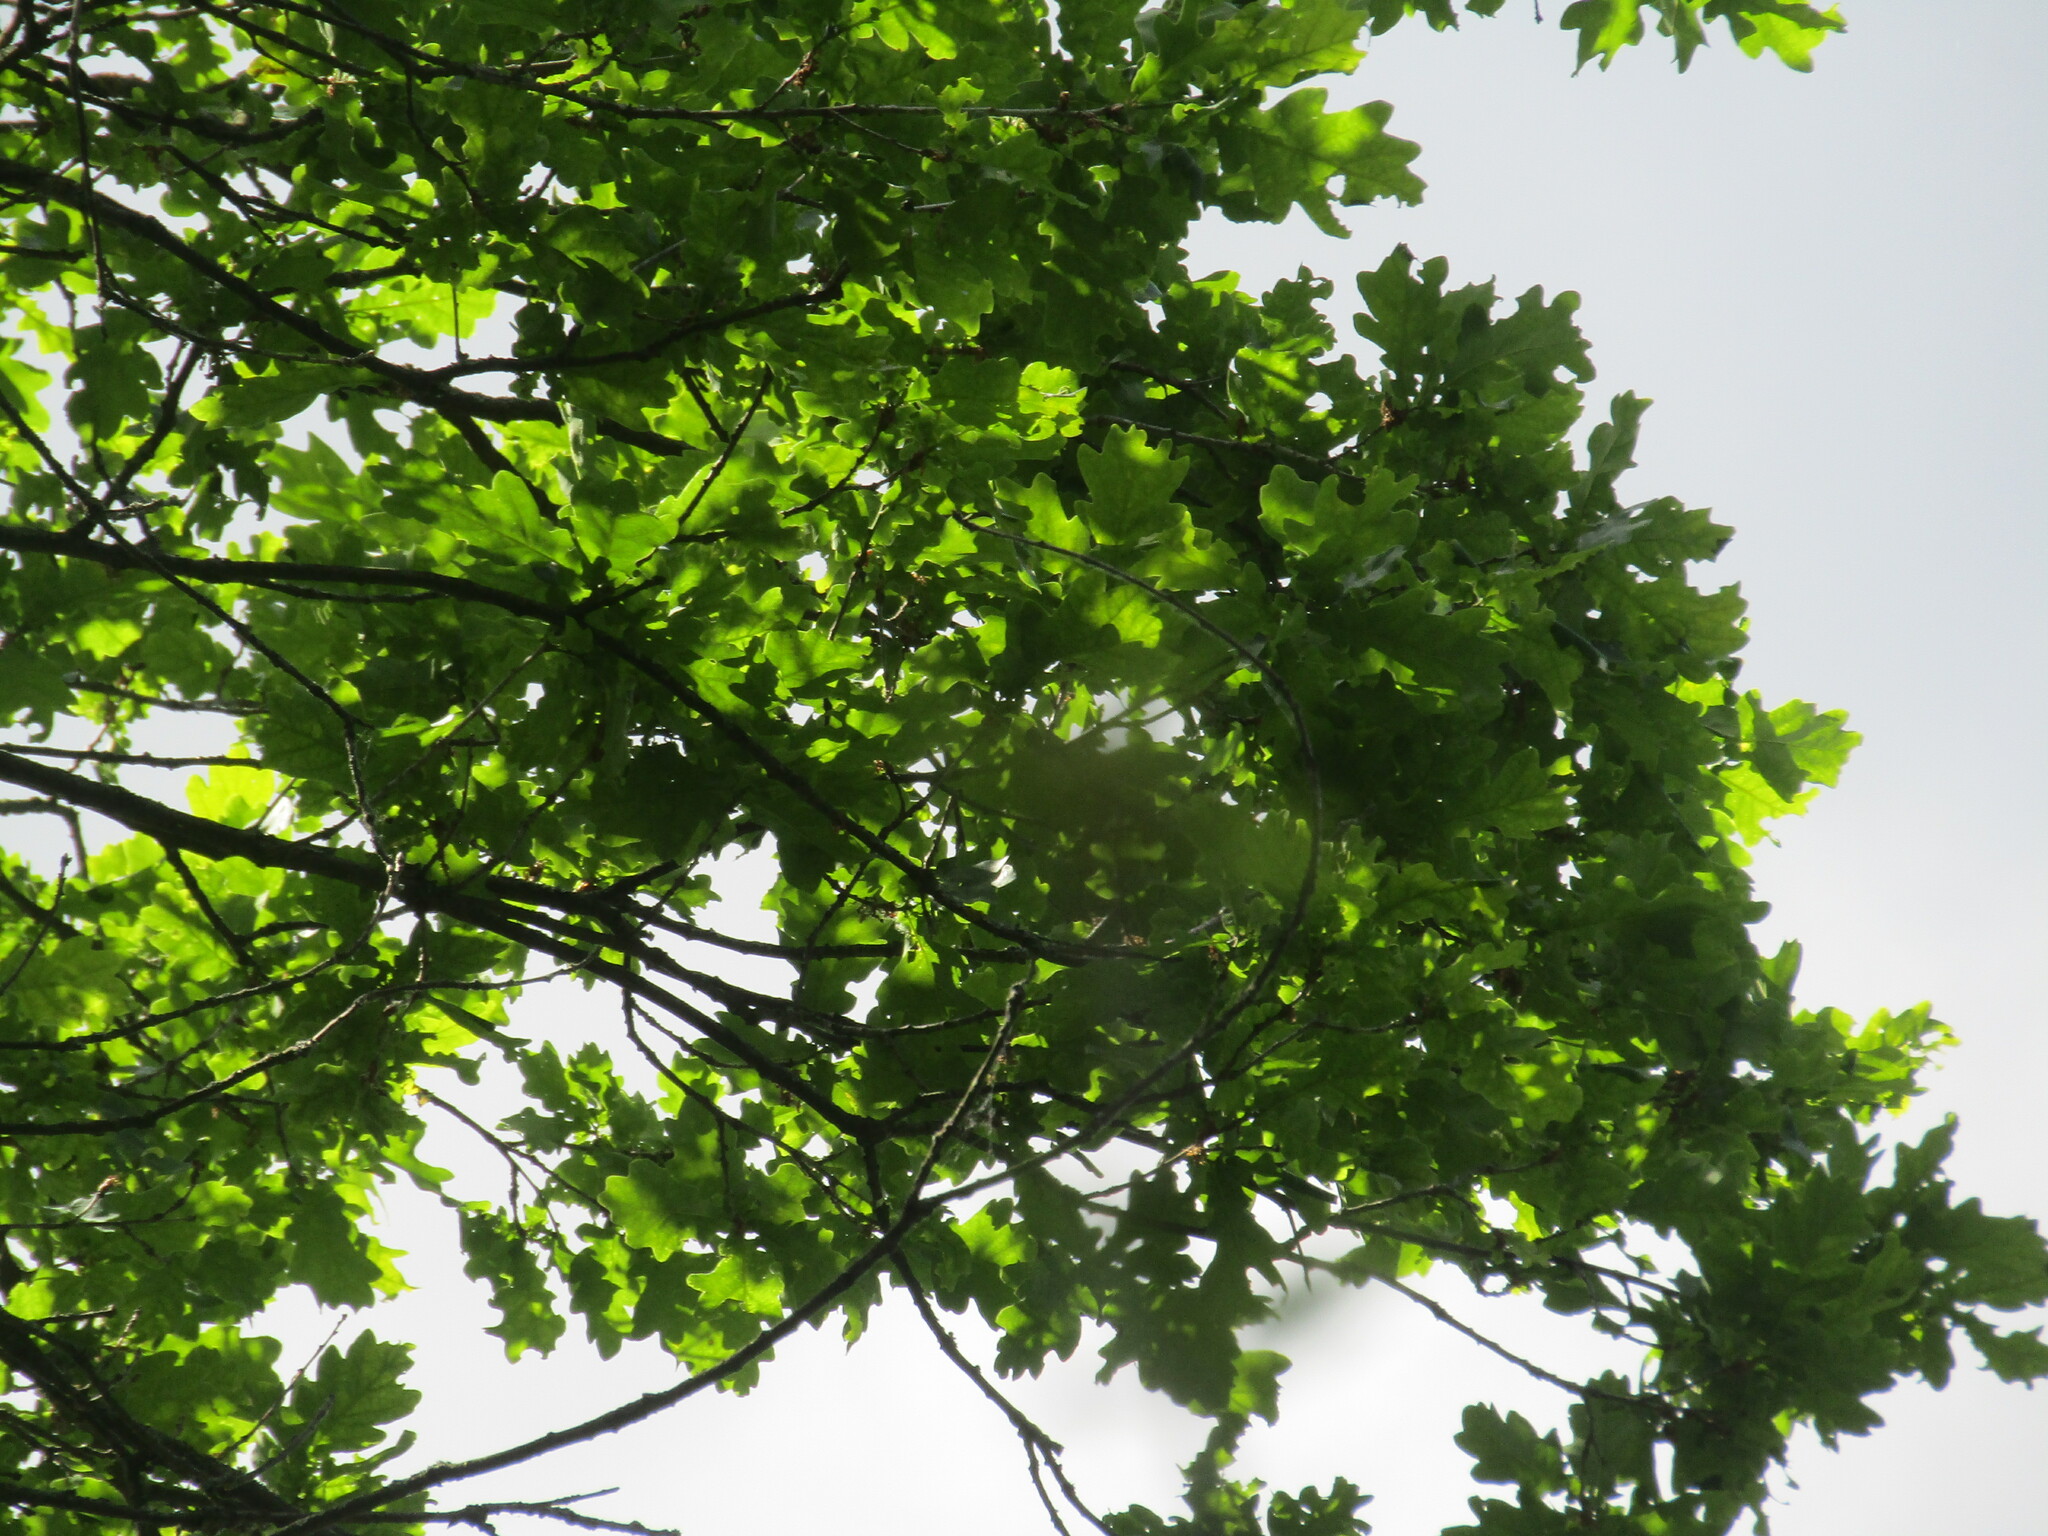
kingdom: Plantae
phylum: Tracheophyta
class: Magnoliopsida
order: Fagales
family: Fagaceae
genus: Quercus
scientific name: Quercus robur
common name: Pedunculate oak
